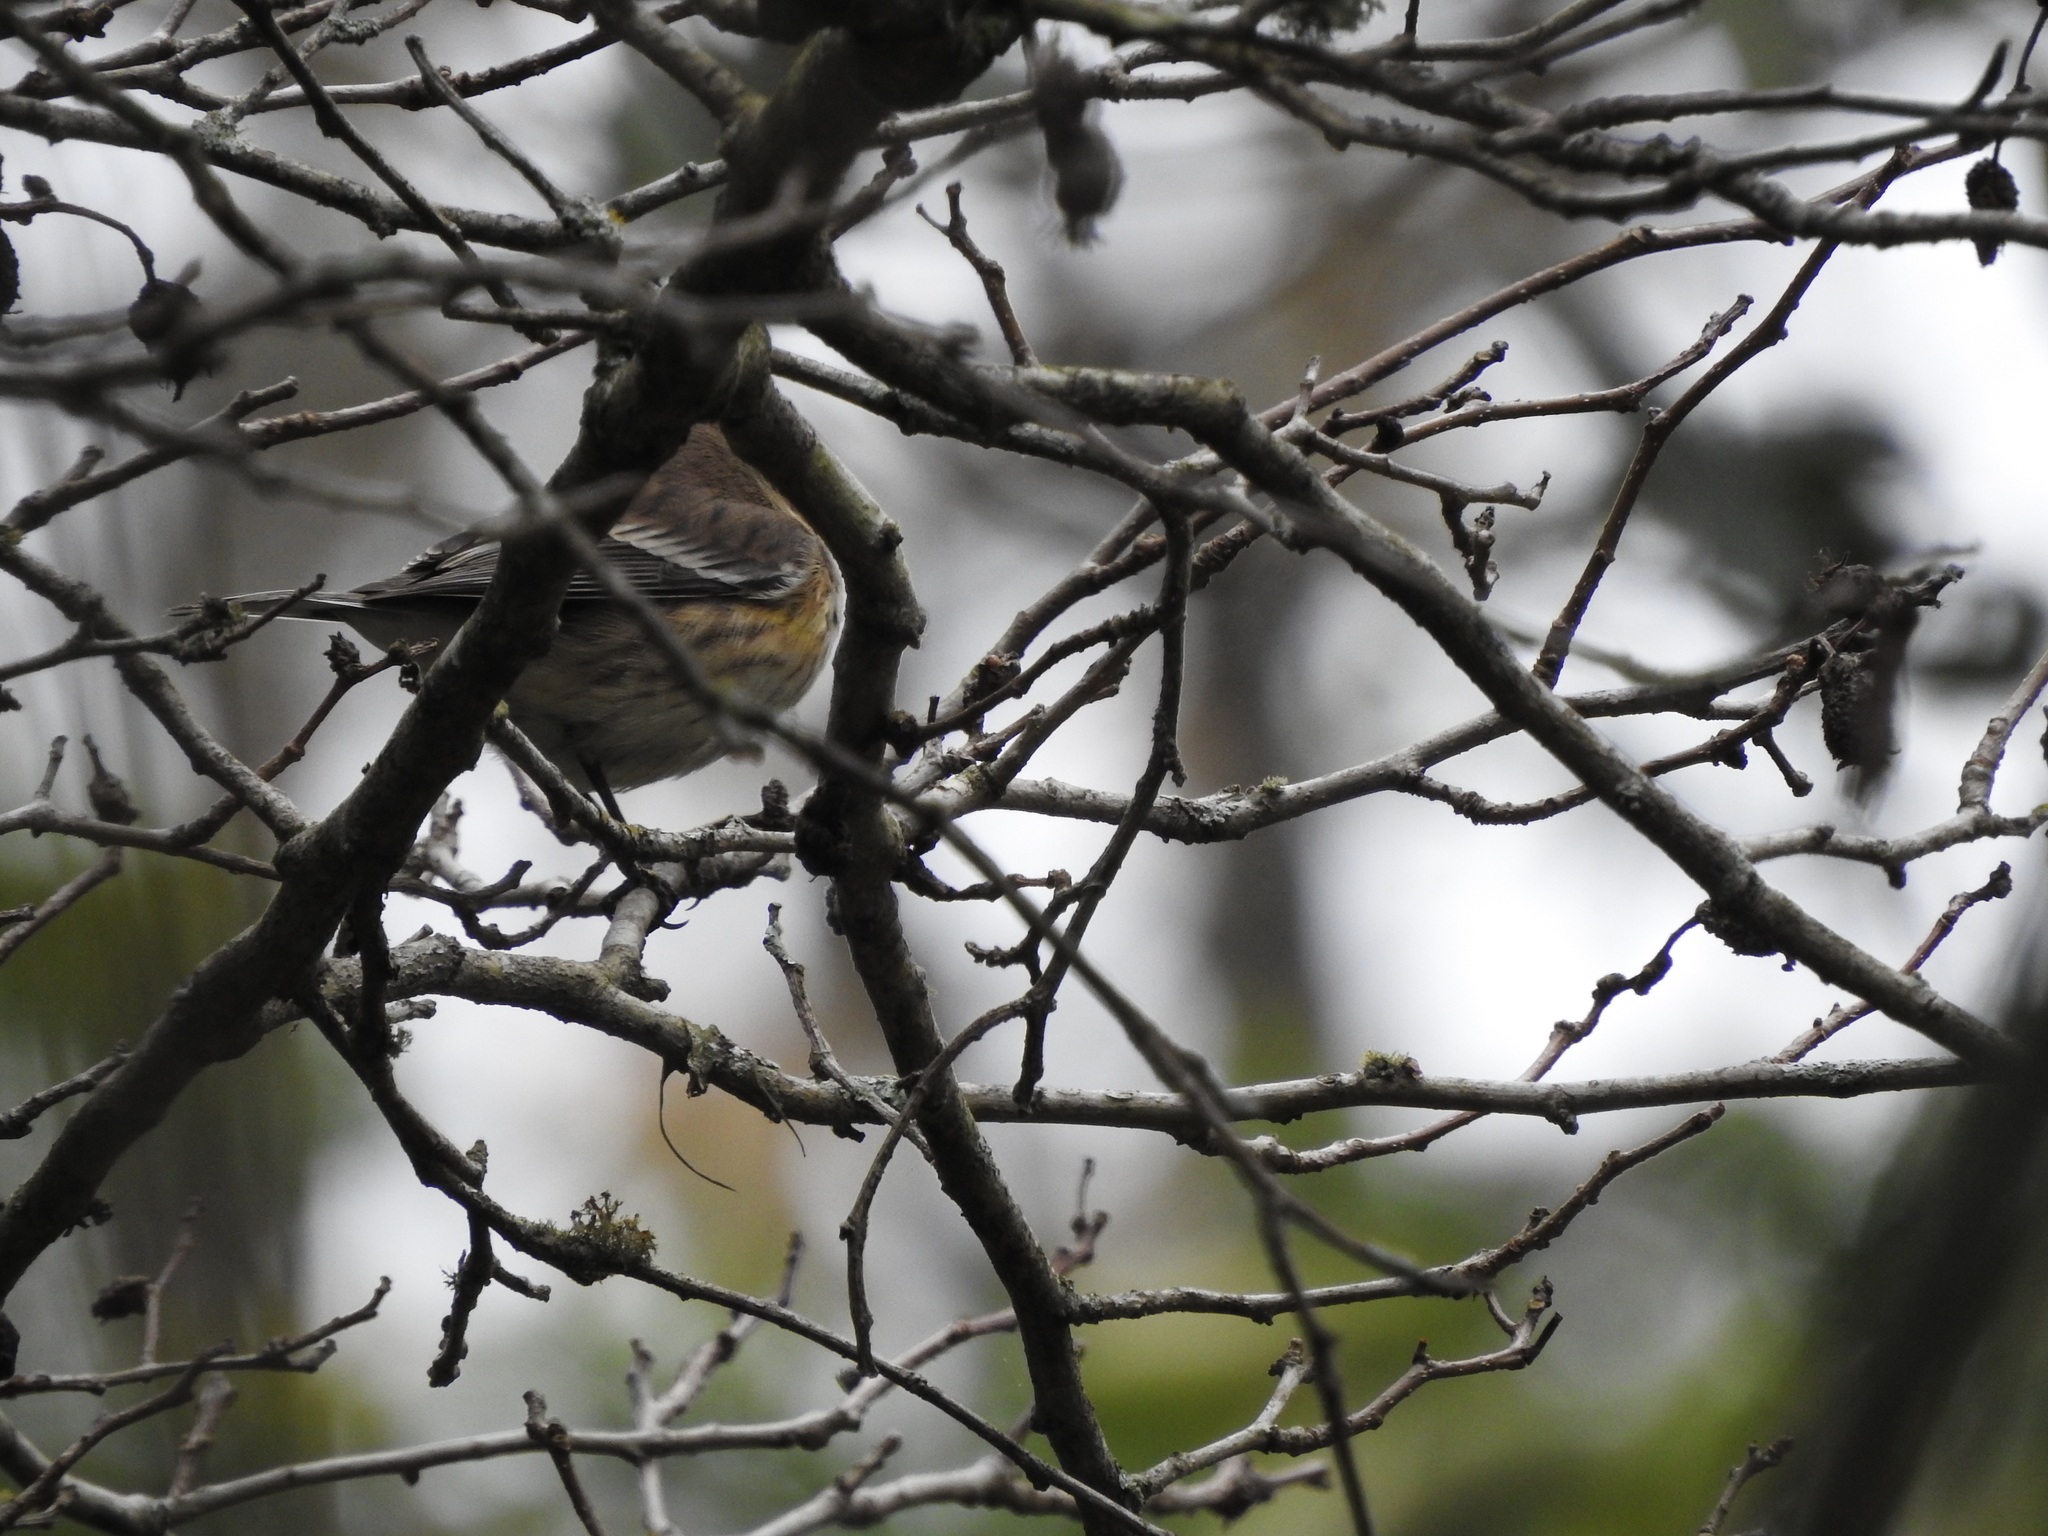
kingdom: Animalia
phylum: Chordata
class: Aves
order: Passeriformes
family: Parulidae
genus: Setophaga
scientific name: Setophaga coronata
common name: Myrtle warbler
